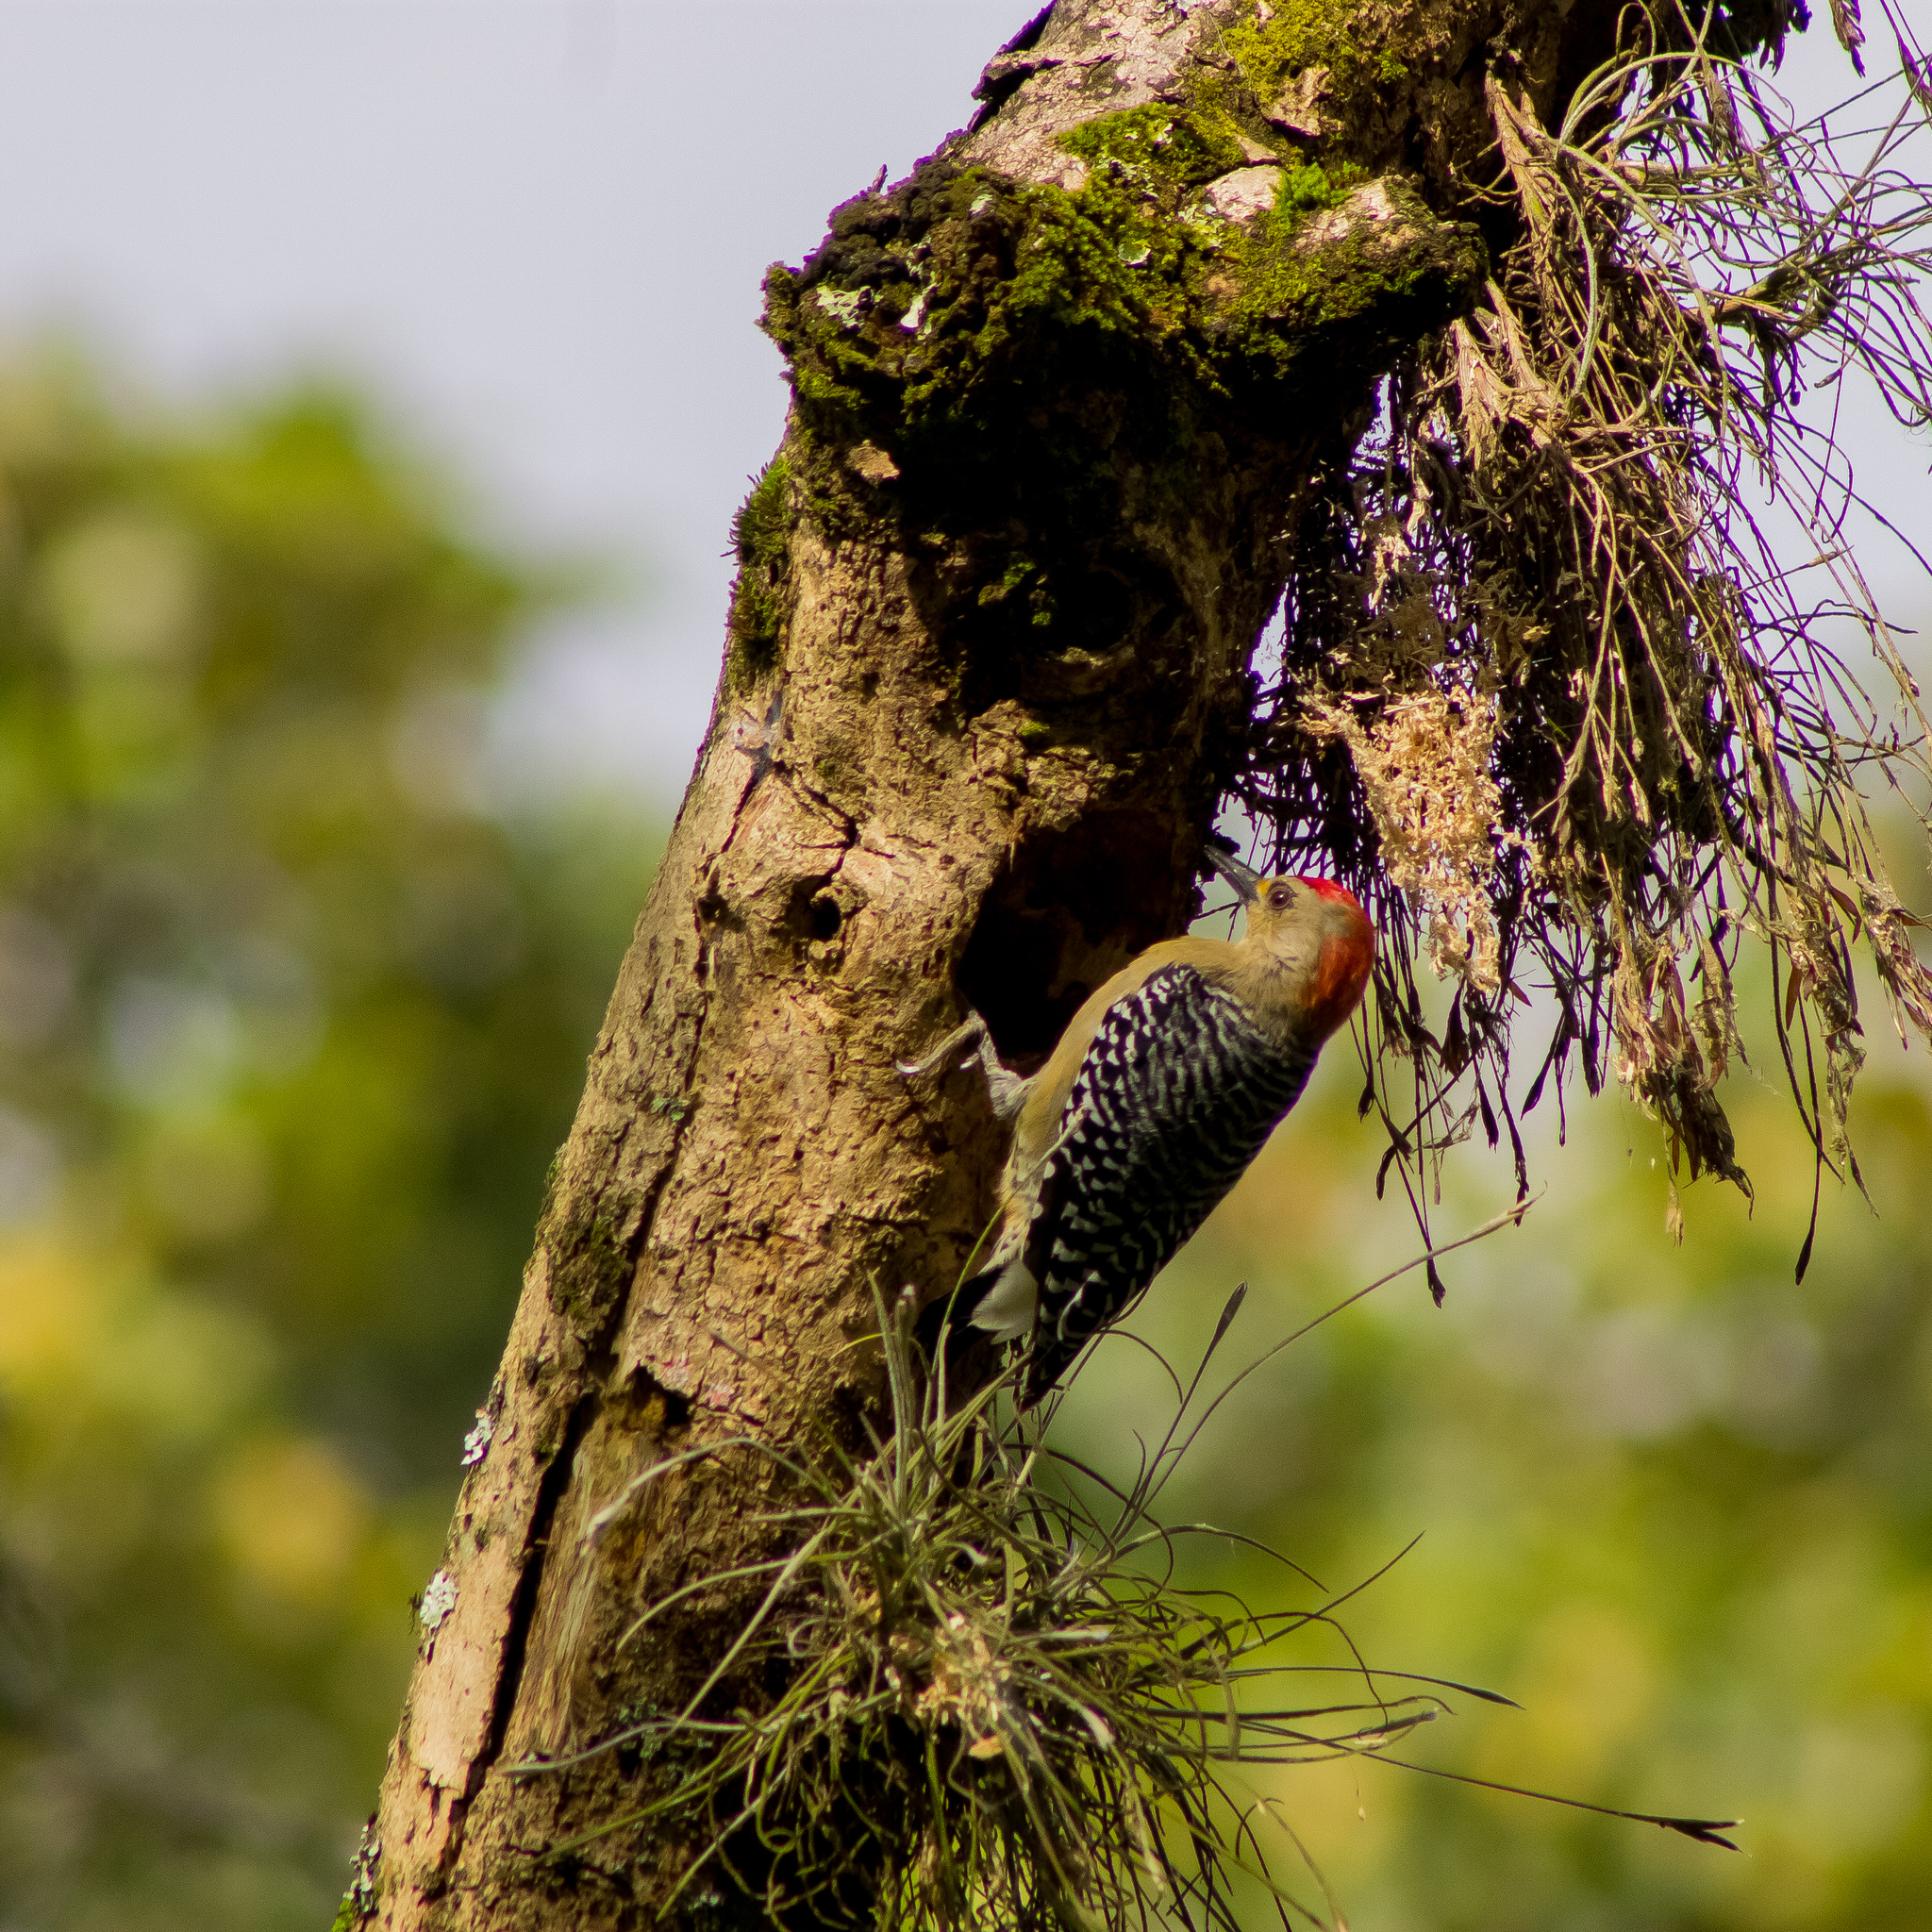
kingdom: Animalia
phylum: Chordata
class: Aves
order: Piciformes
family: Picidae
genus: Melanerpes
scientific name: Melanerpes rubricapillus
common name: Red-crowned woodpecker
